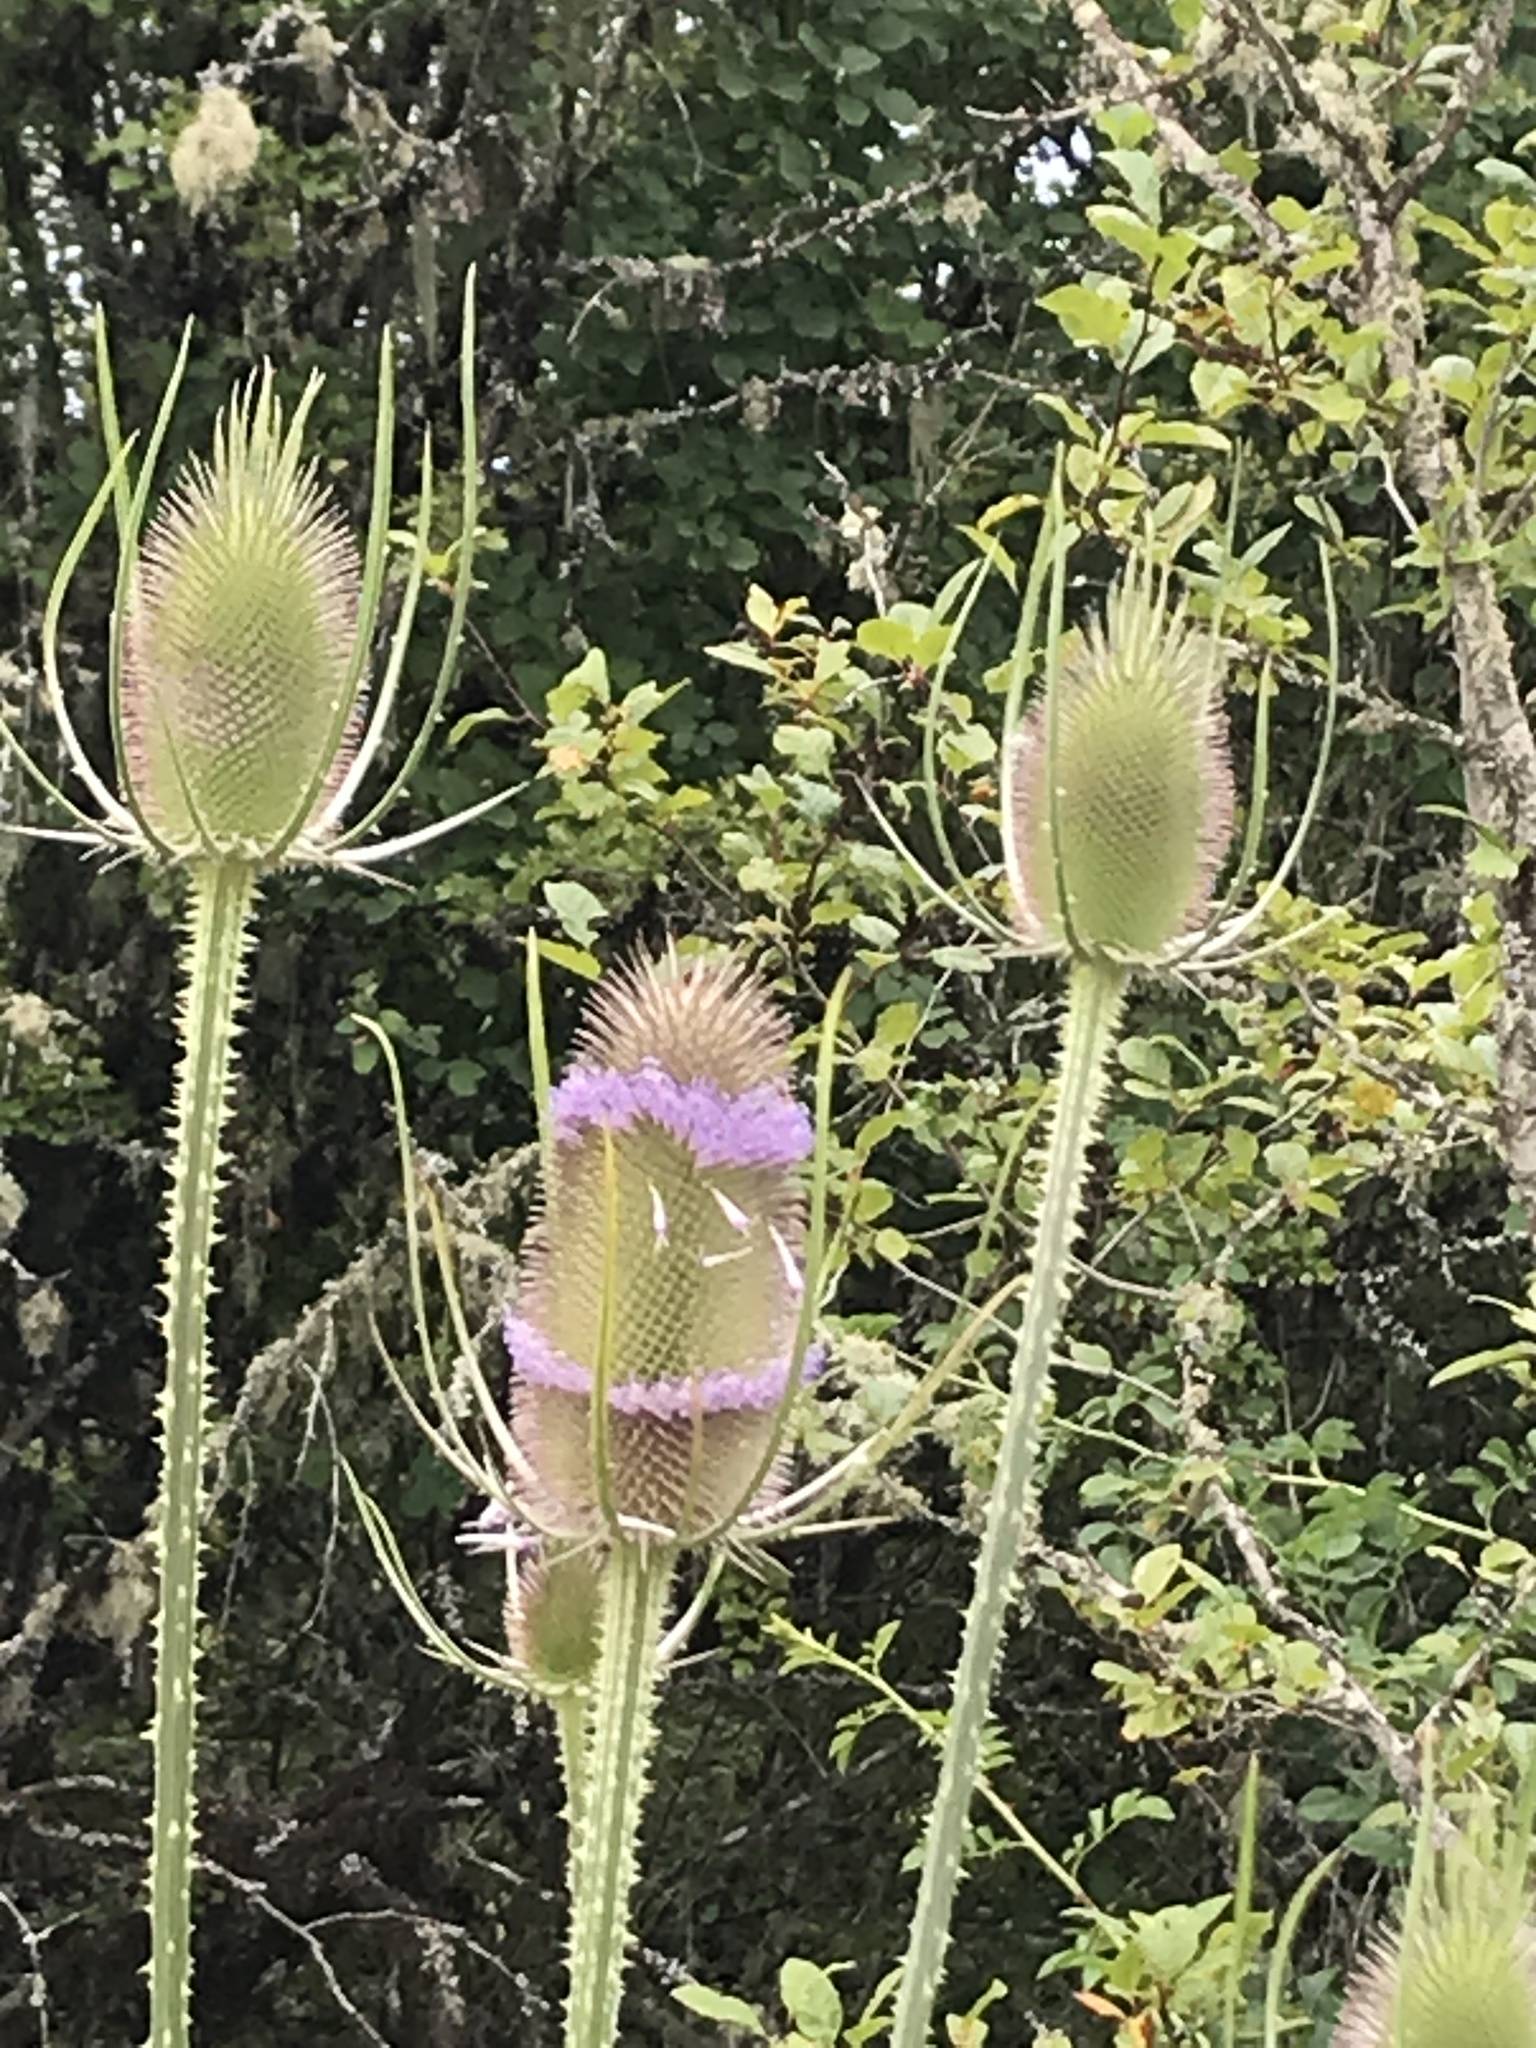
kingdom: Plantae
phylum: Tracheophyta
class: Magnoliopsida
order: Dipsacales
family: Caprifoliaceae
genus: Dipsacus
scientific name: Dipsacus fullonum
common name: Teasel
